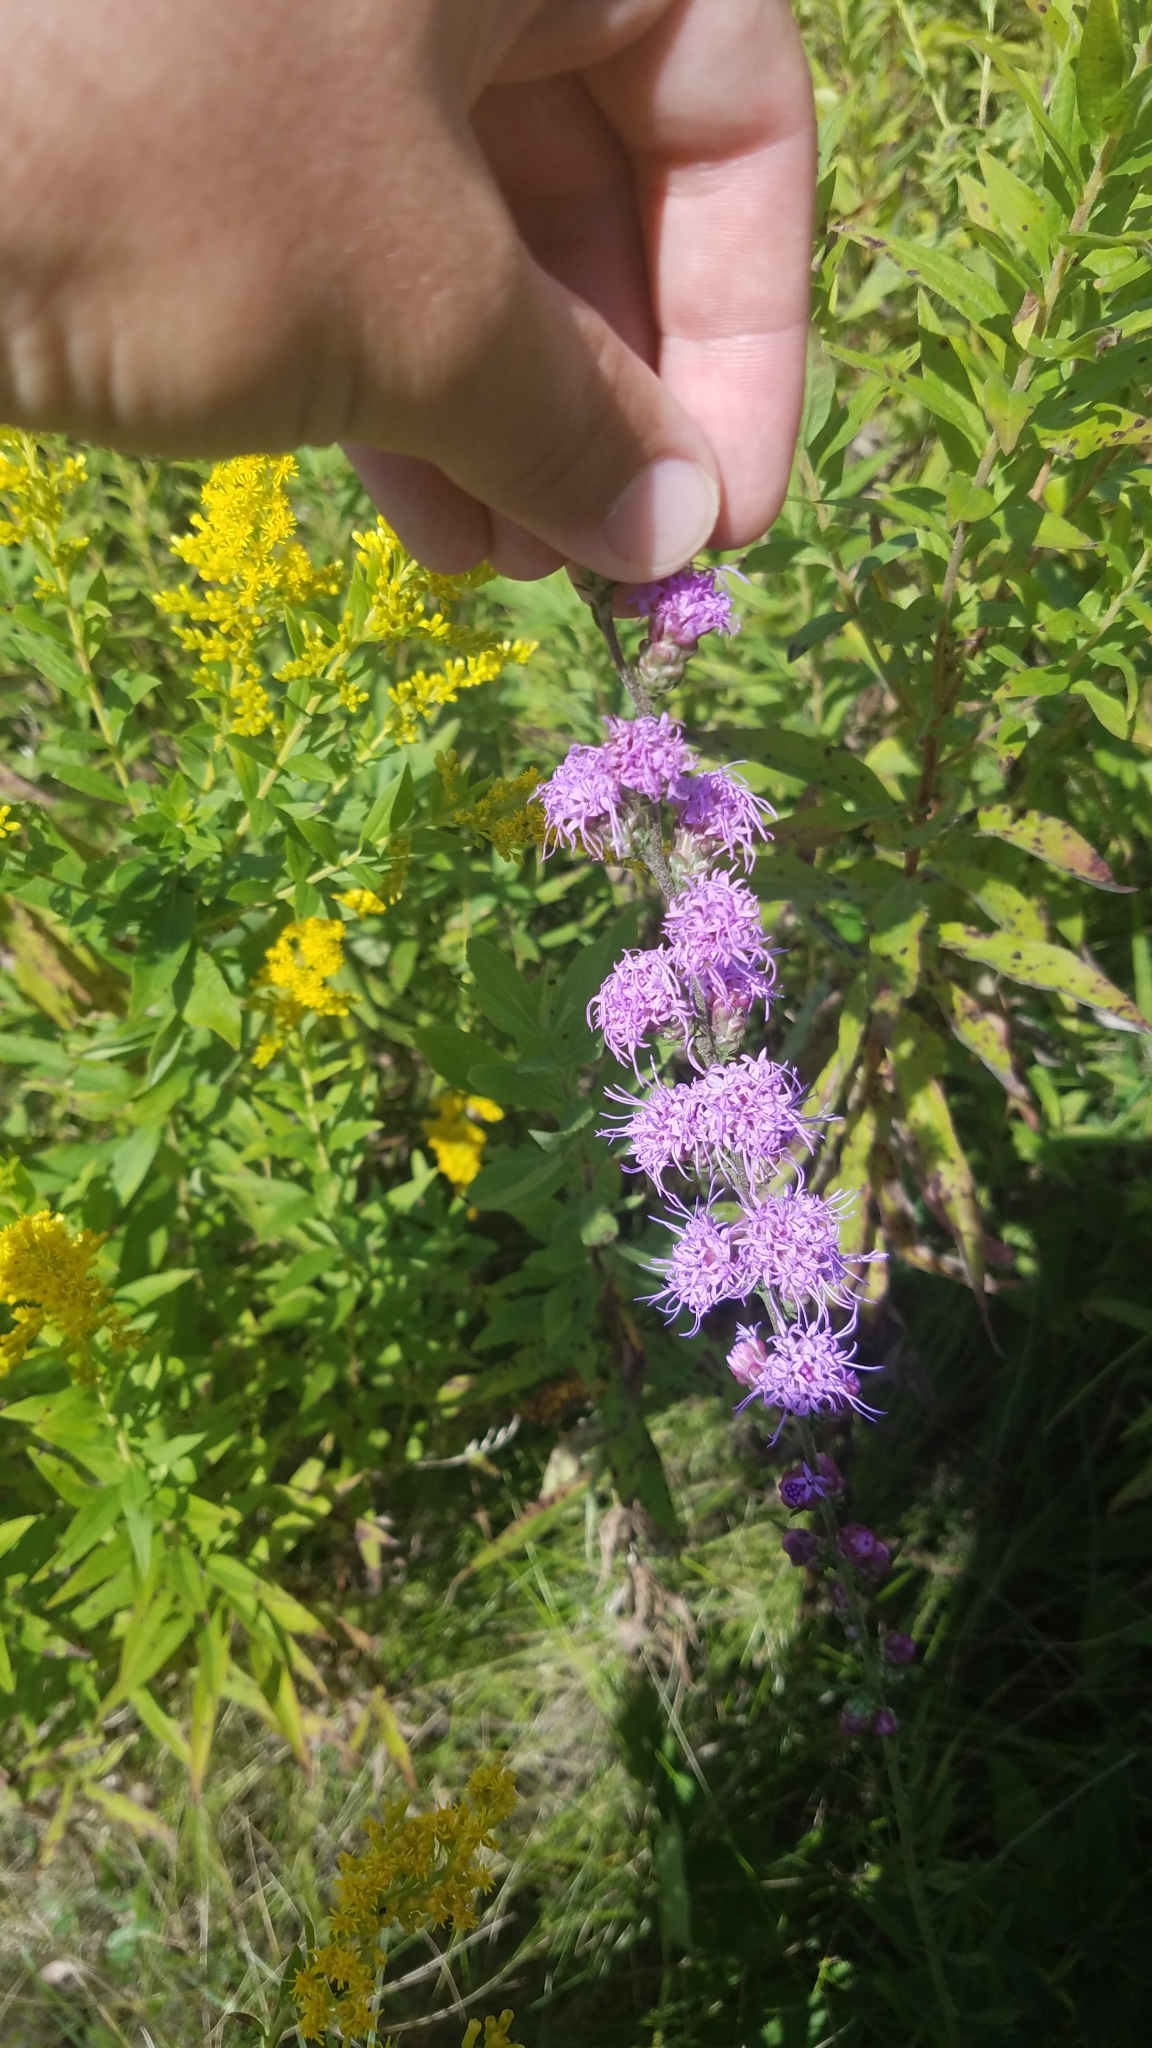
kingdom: Plantae
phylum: Tracheophyta
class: Magnoliopsida
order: Asterales
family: Asteraceae
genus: Liatris
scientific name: Liatris aspera
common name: Lacerate blazing-star
